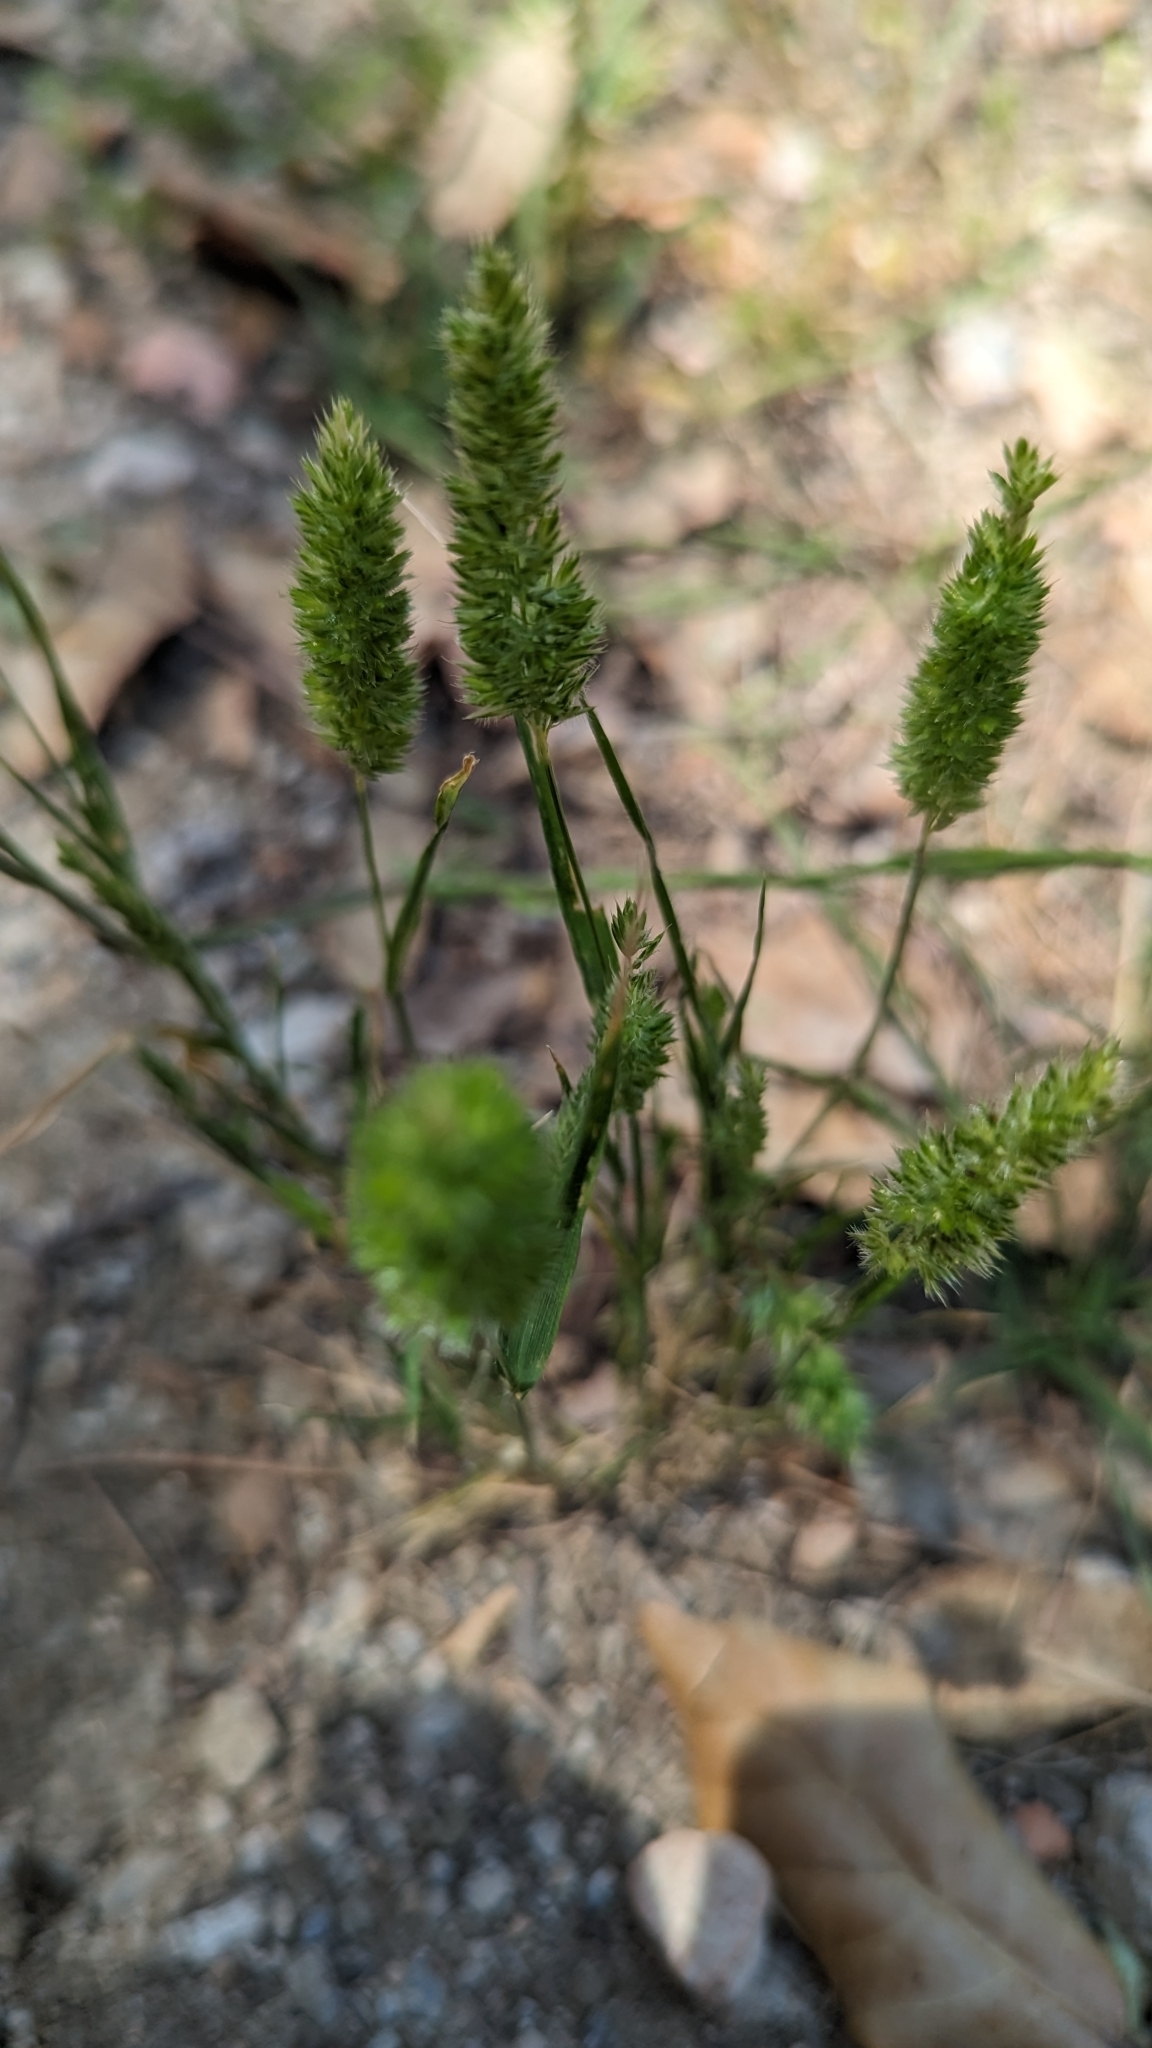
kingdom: Plantae
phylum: Tracheophyta
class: Liliopsida
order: Poales
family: Poaceae
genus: Rostraria
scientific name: Rostraria cristata
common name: Mediterranean hair-grass
